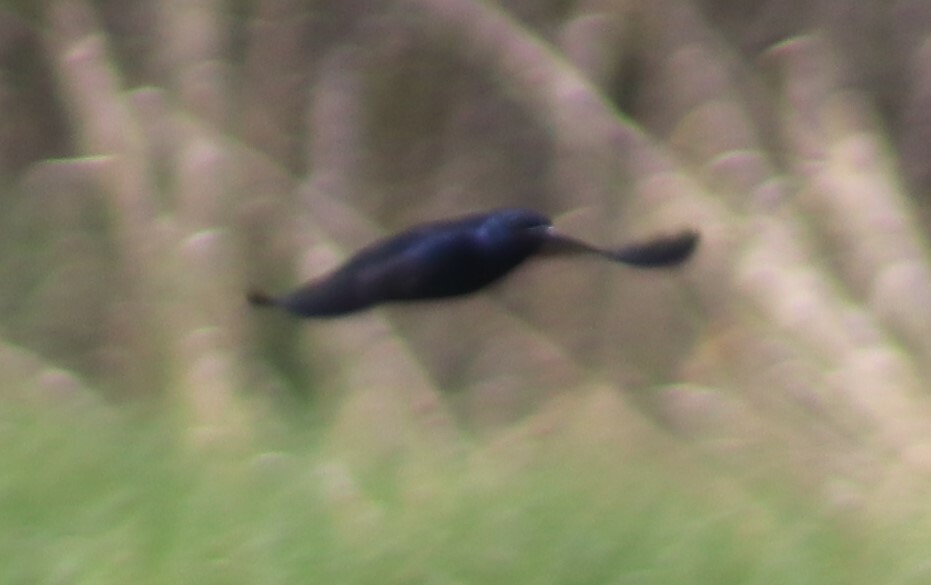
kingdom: Animalia
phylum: Chordata
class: Aves
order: Passeriformes
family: Hirundinidae
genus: Progne
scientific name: Progne subis
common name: Purple martin
